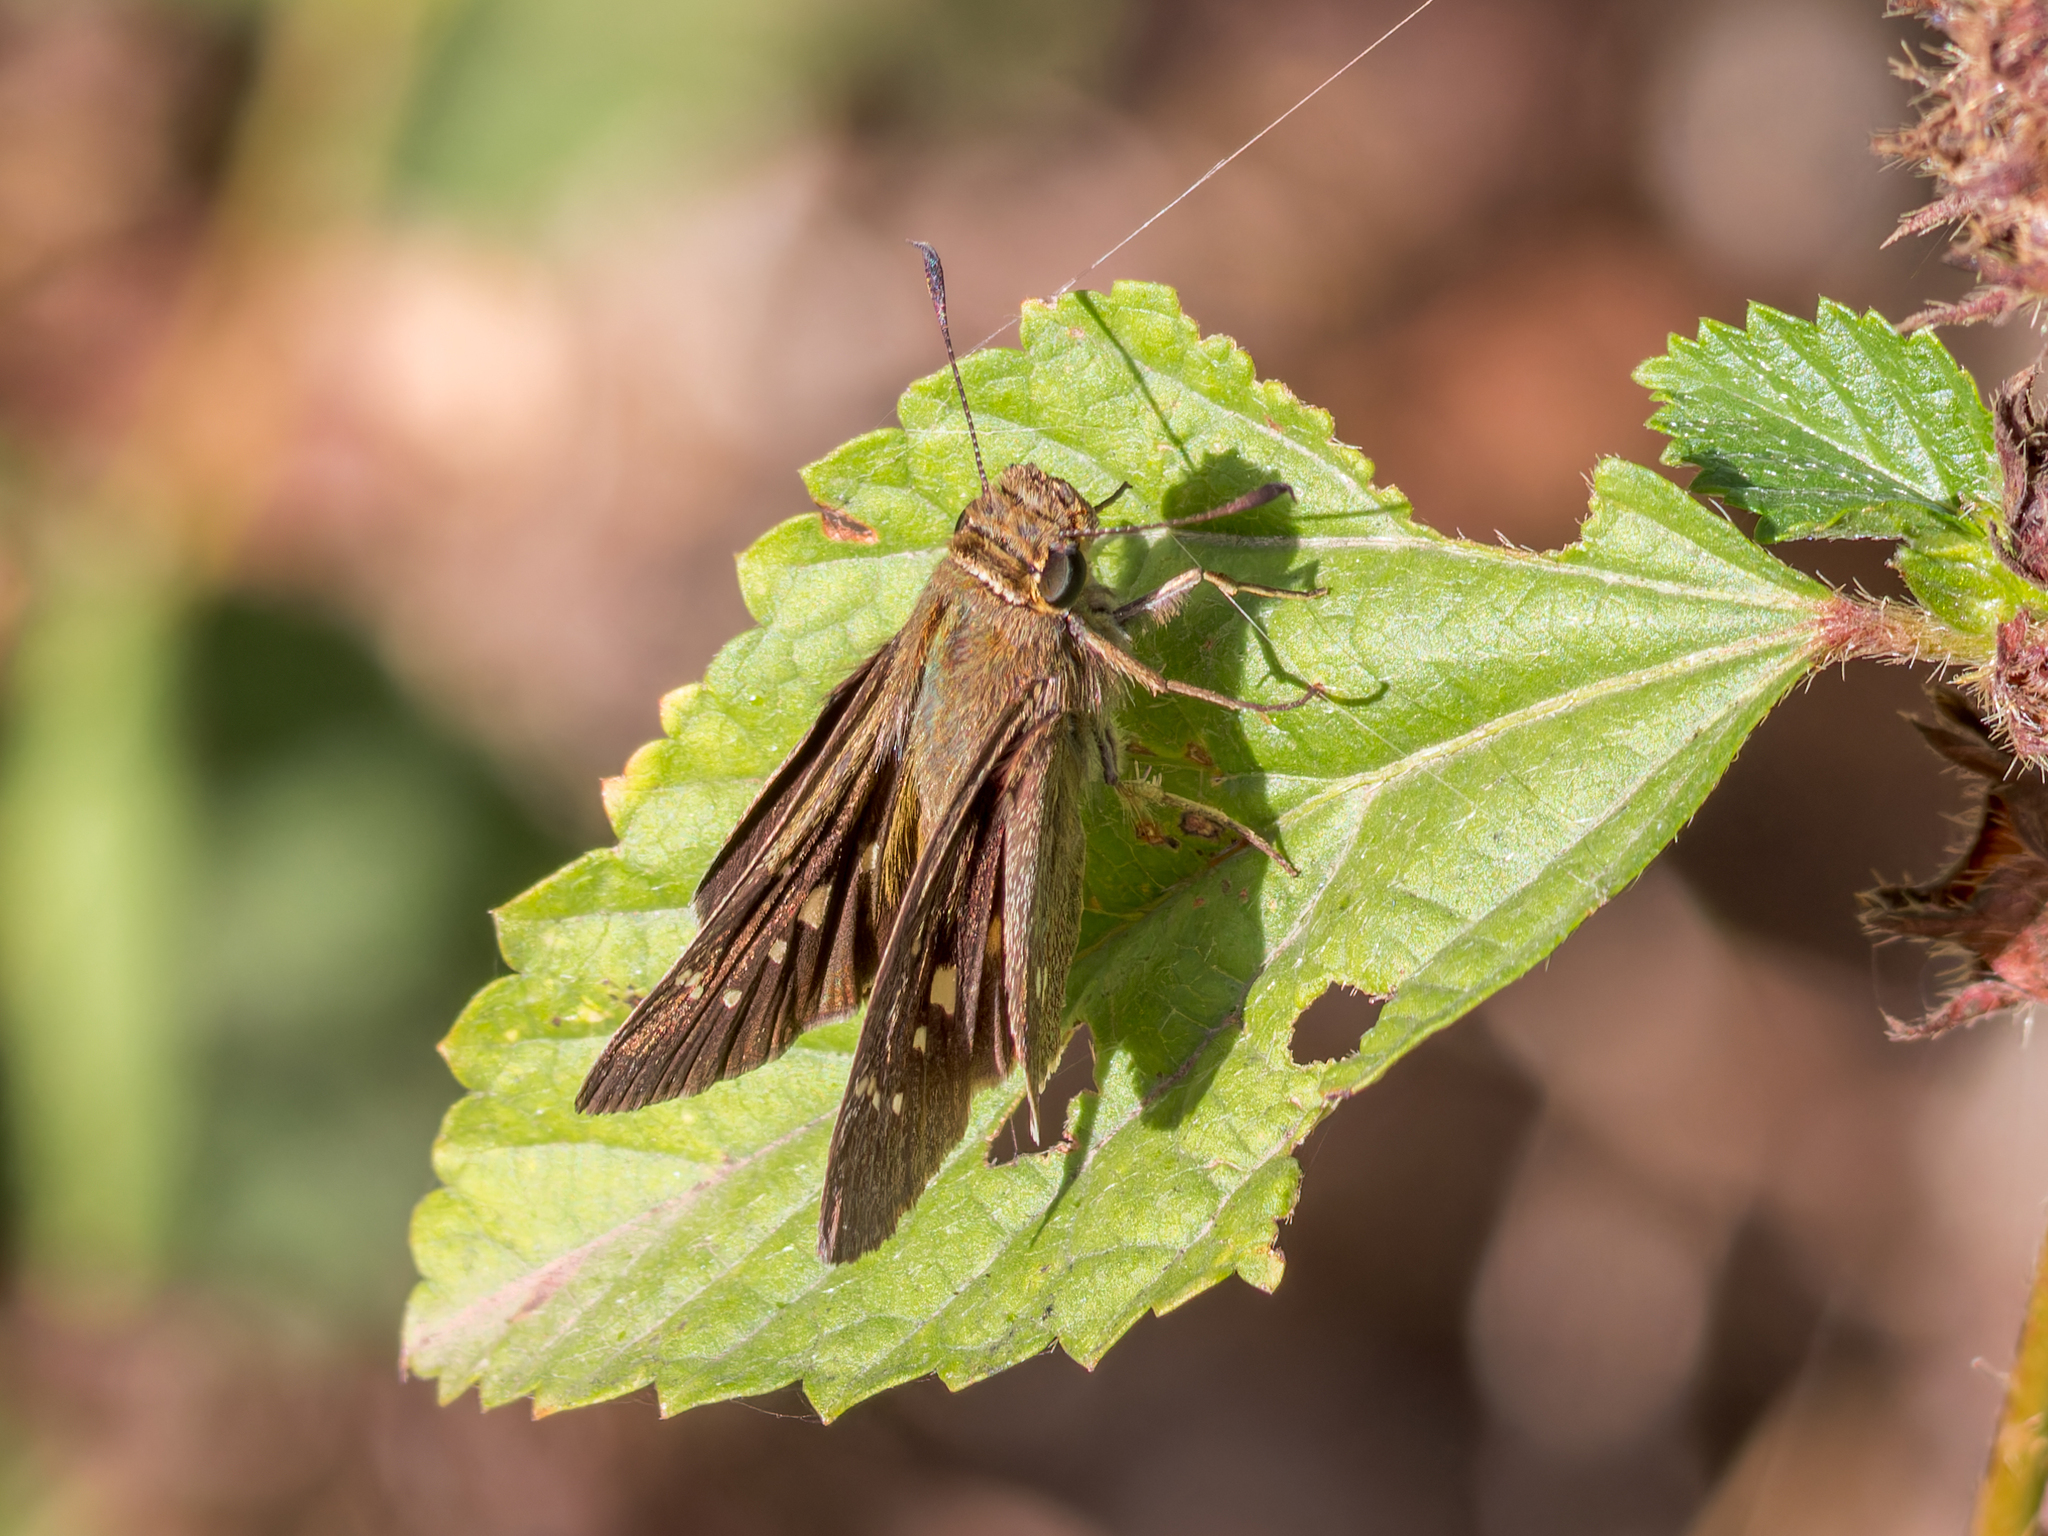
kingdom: Animalia
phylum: Arthropoda
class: Insecta
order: Lepidoptera
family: Hesperiidae
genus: Borbo
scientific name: Borbo borbonica
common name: Olive-haired swift
